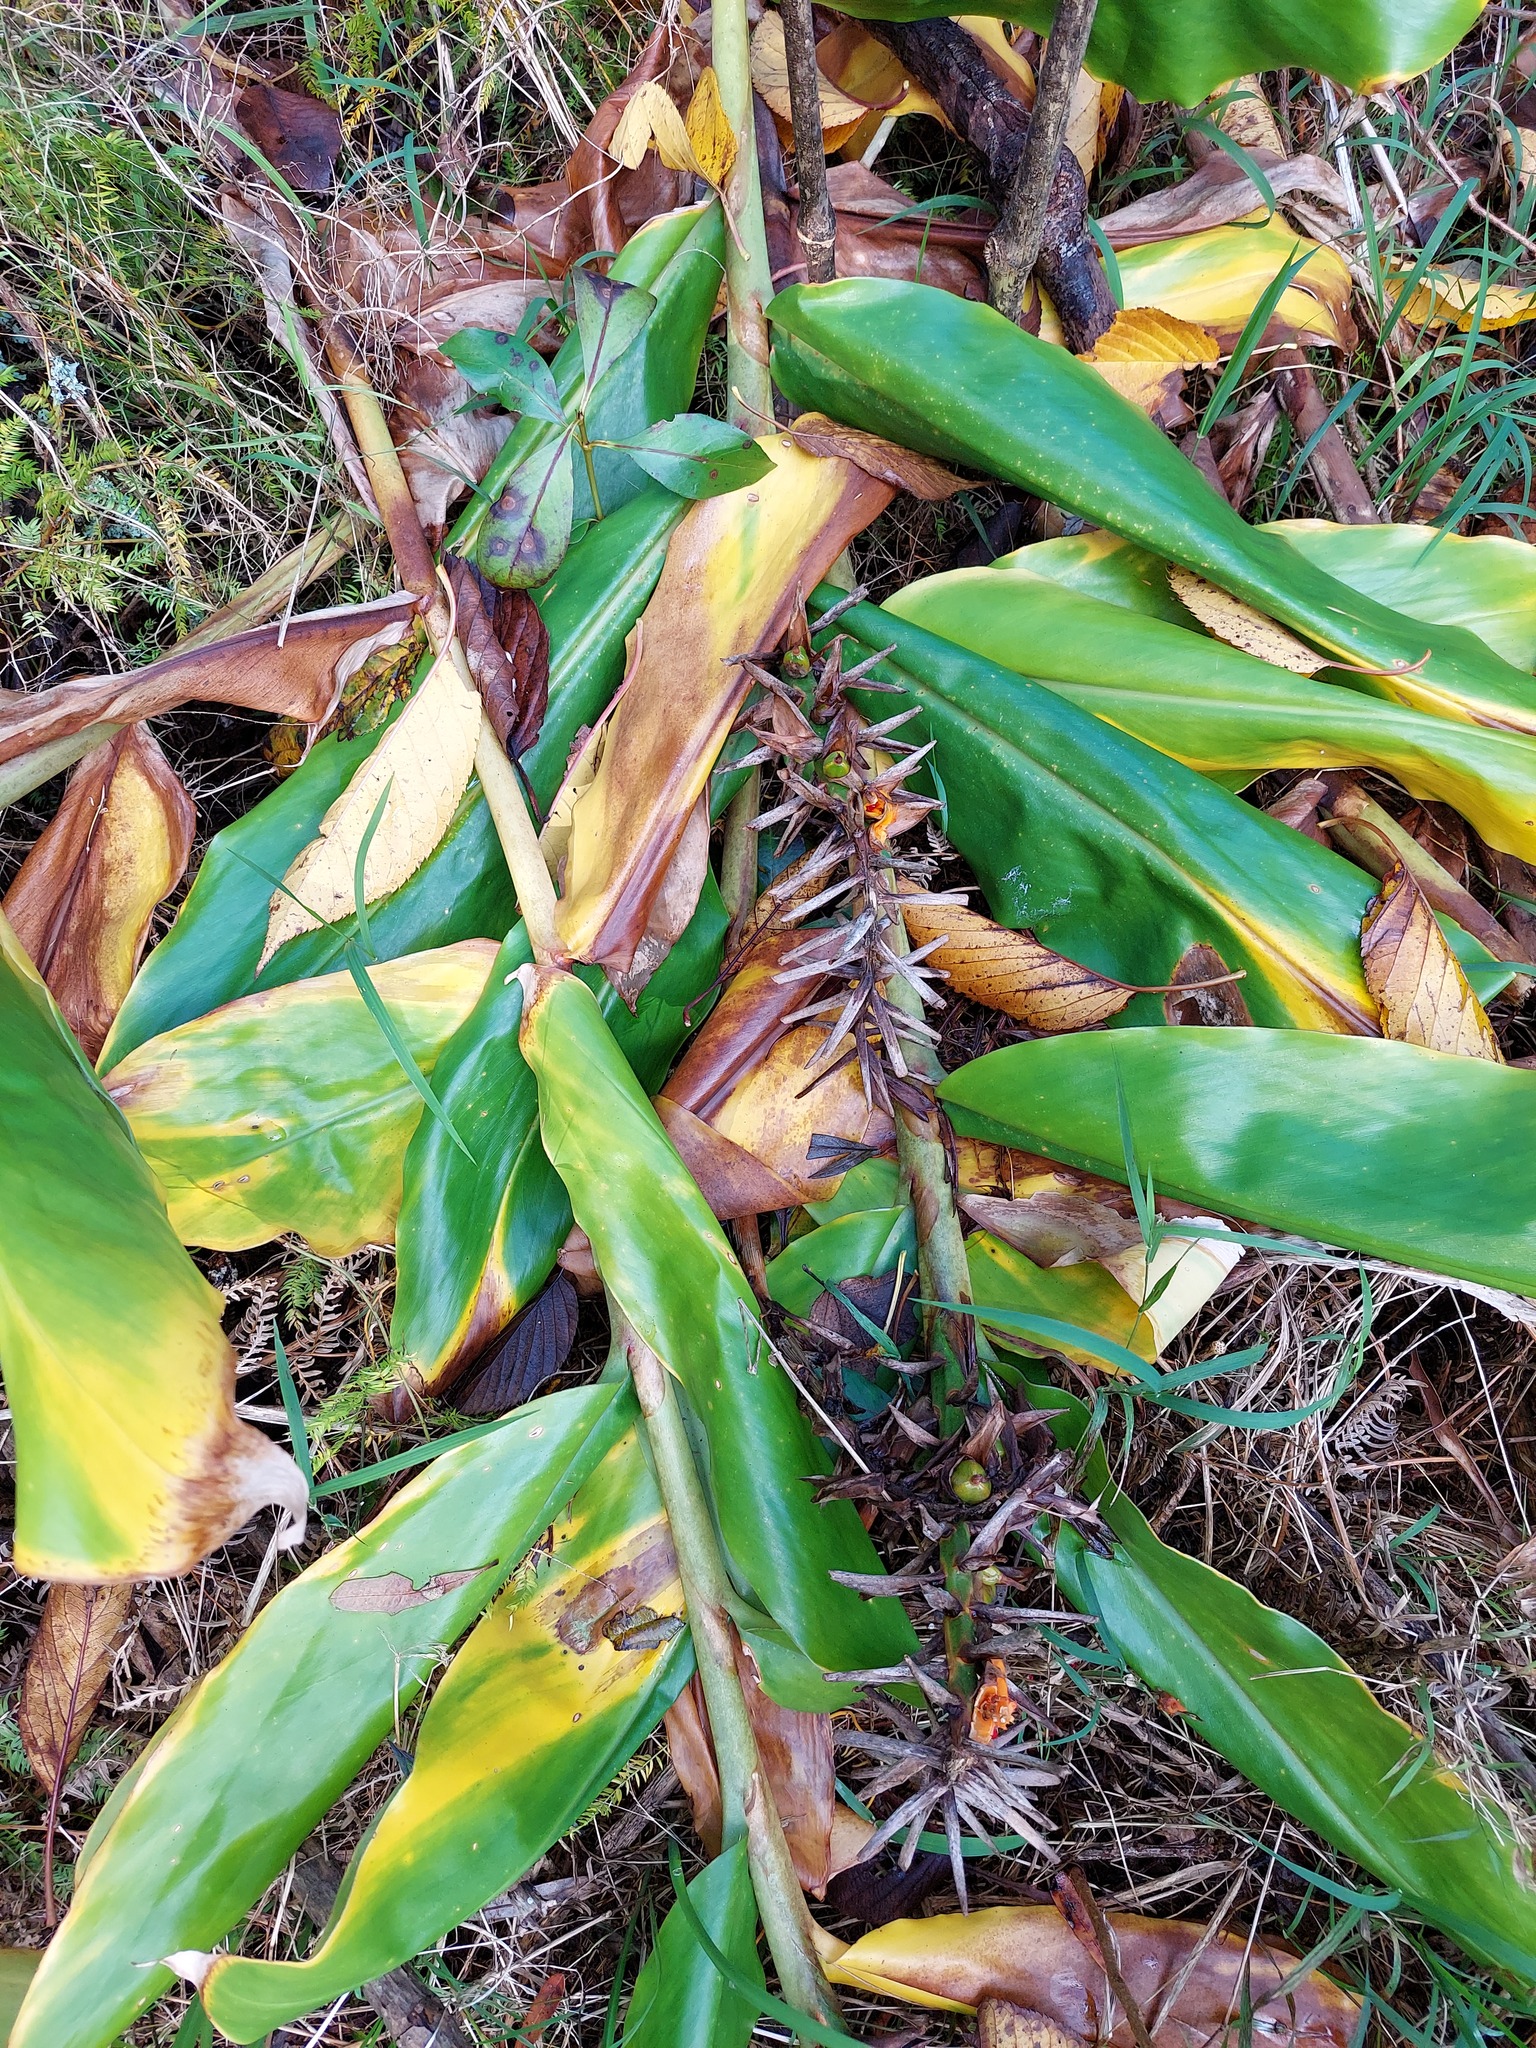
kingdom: Plantae
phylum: Tracheophyta
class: Liliopsida
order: Zingiberales
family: Zingiberaceae
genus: Hedychium
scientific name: Hedychium gardnerianum
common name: Himalayan ginger
